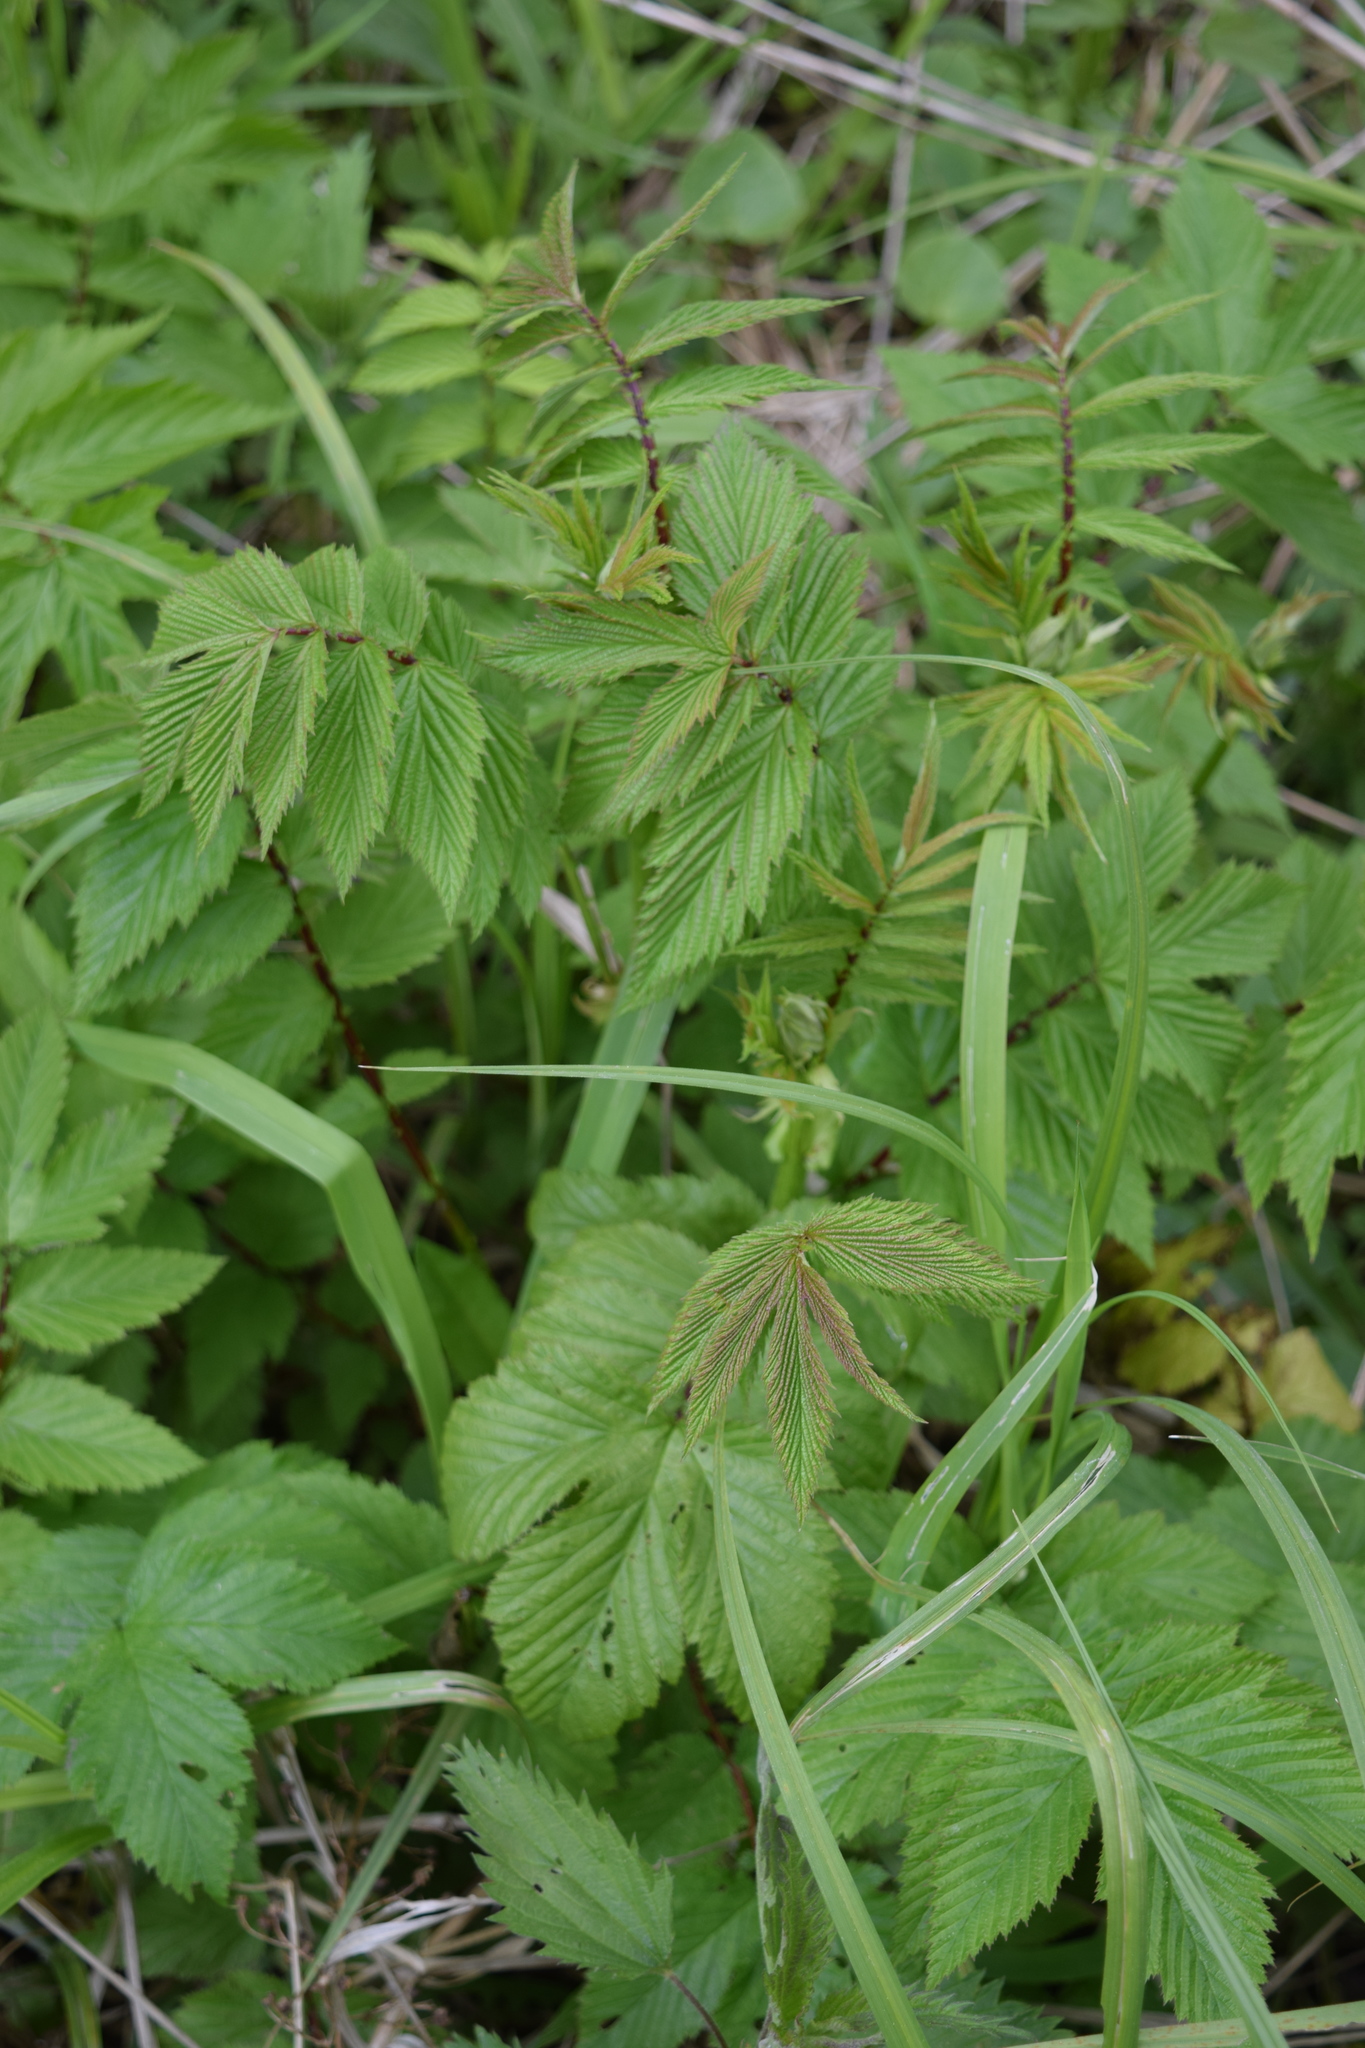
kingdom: Plantae
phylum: Tracheophyta
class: Magnoliopsida
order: Rosales
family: Rosaceae
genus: Filipendula
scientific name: Filipendula ulmaria
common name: Meadowsweet
